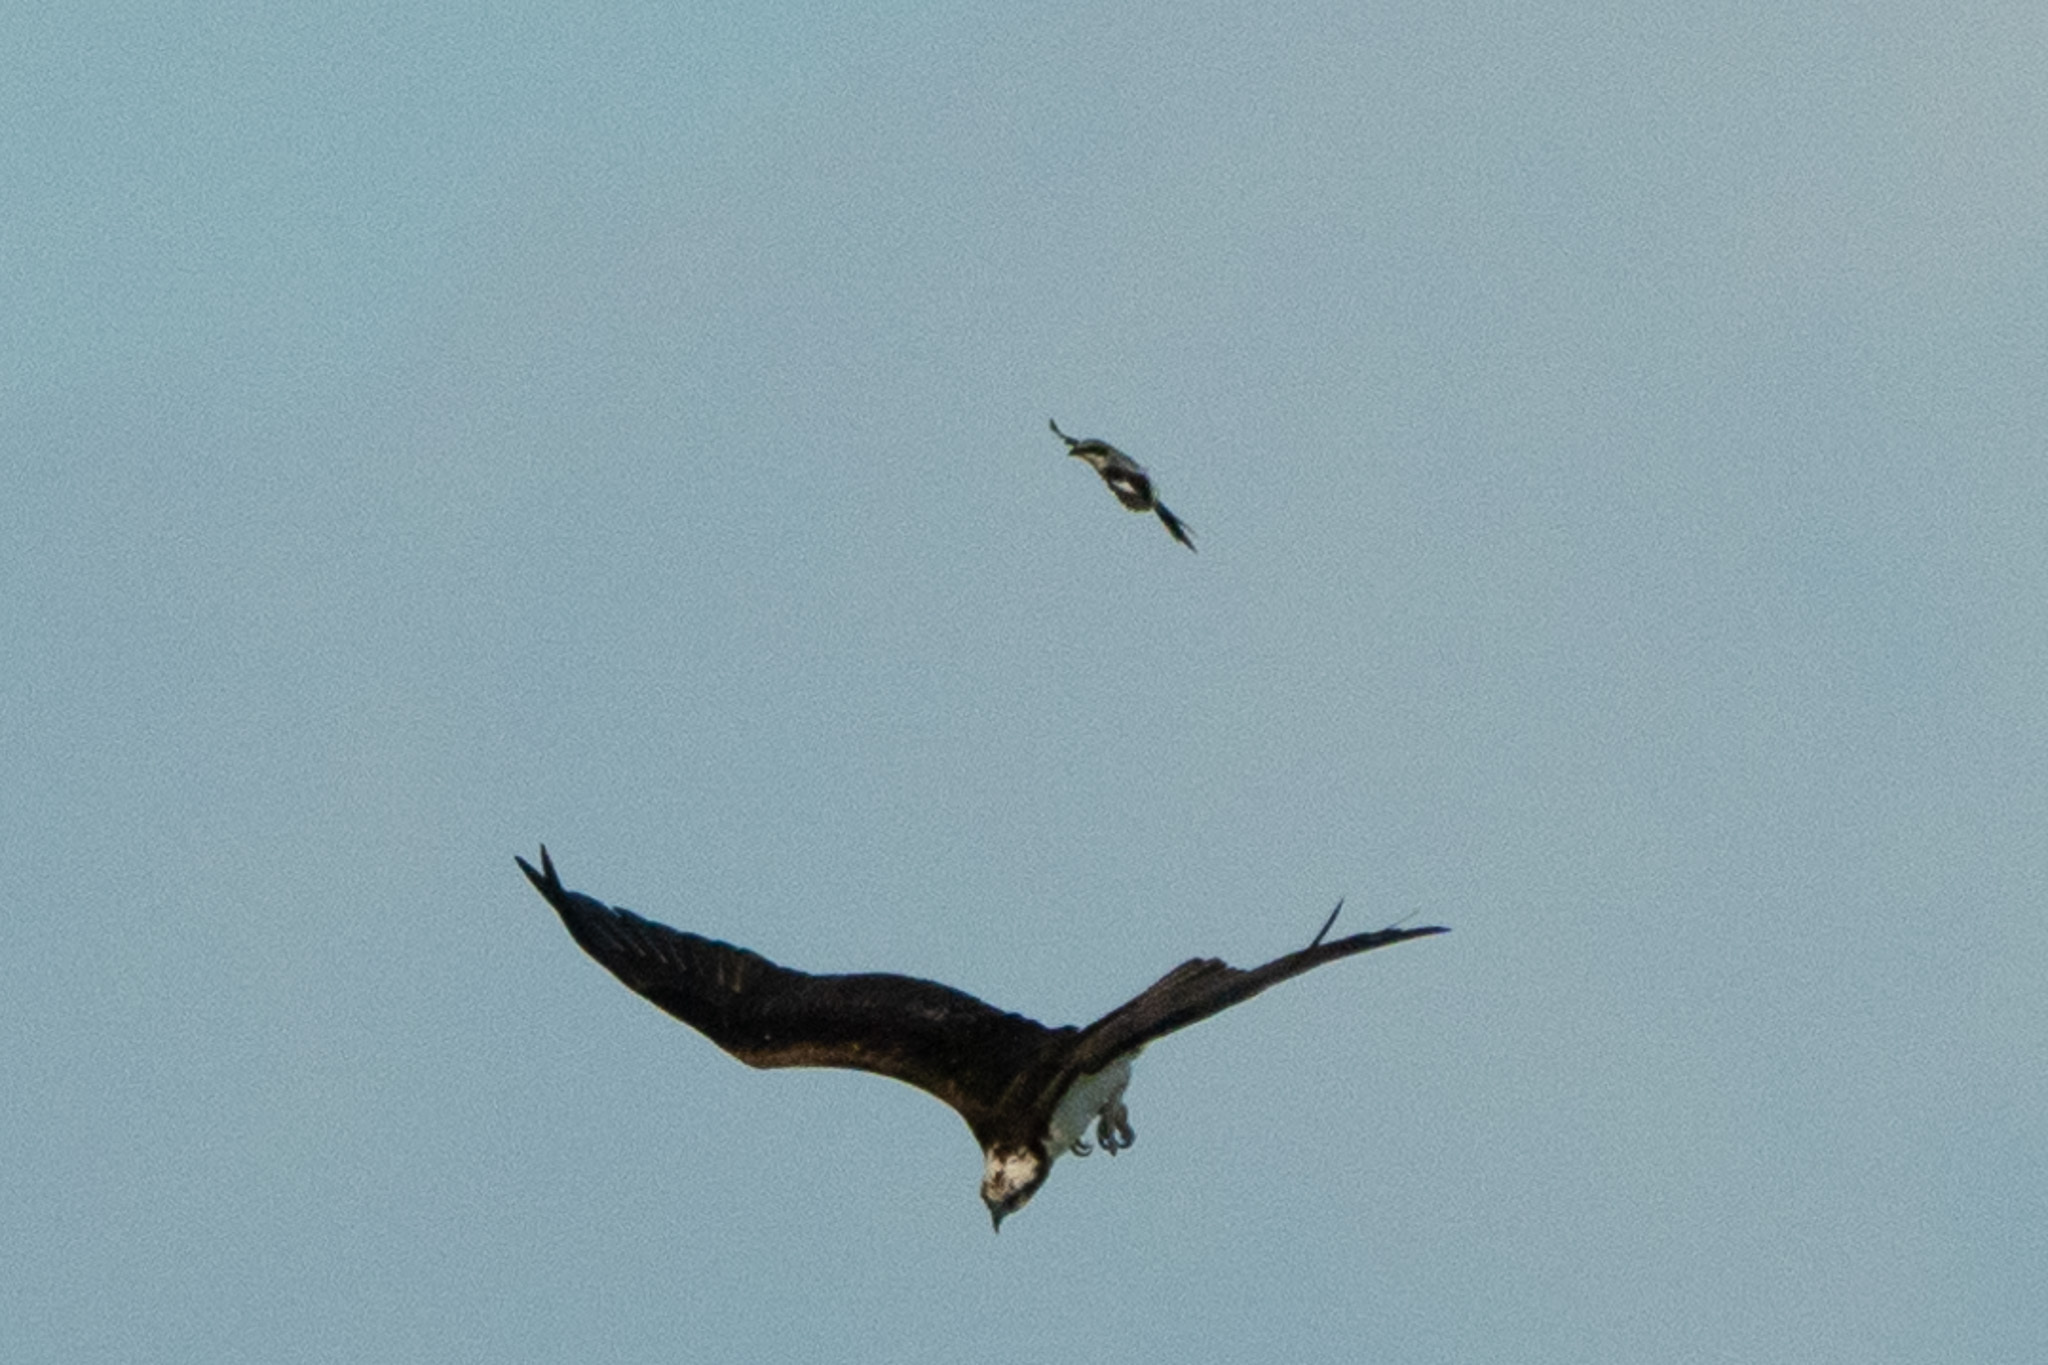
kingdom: Animalia
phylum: Chordata
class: Aves
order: Accipitriformes
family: Pandionidae
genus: Pandion
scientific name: Pandion haliaetus
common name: Osprey
